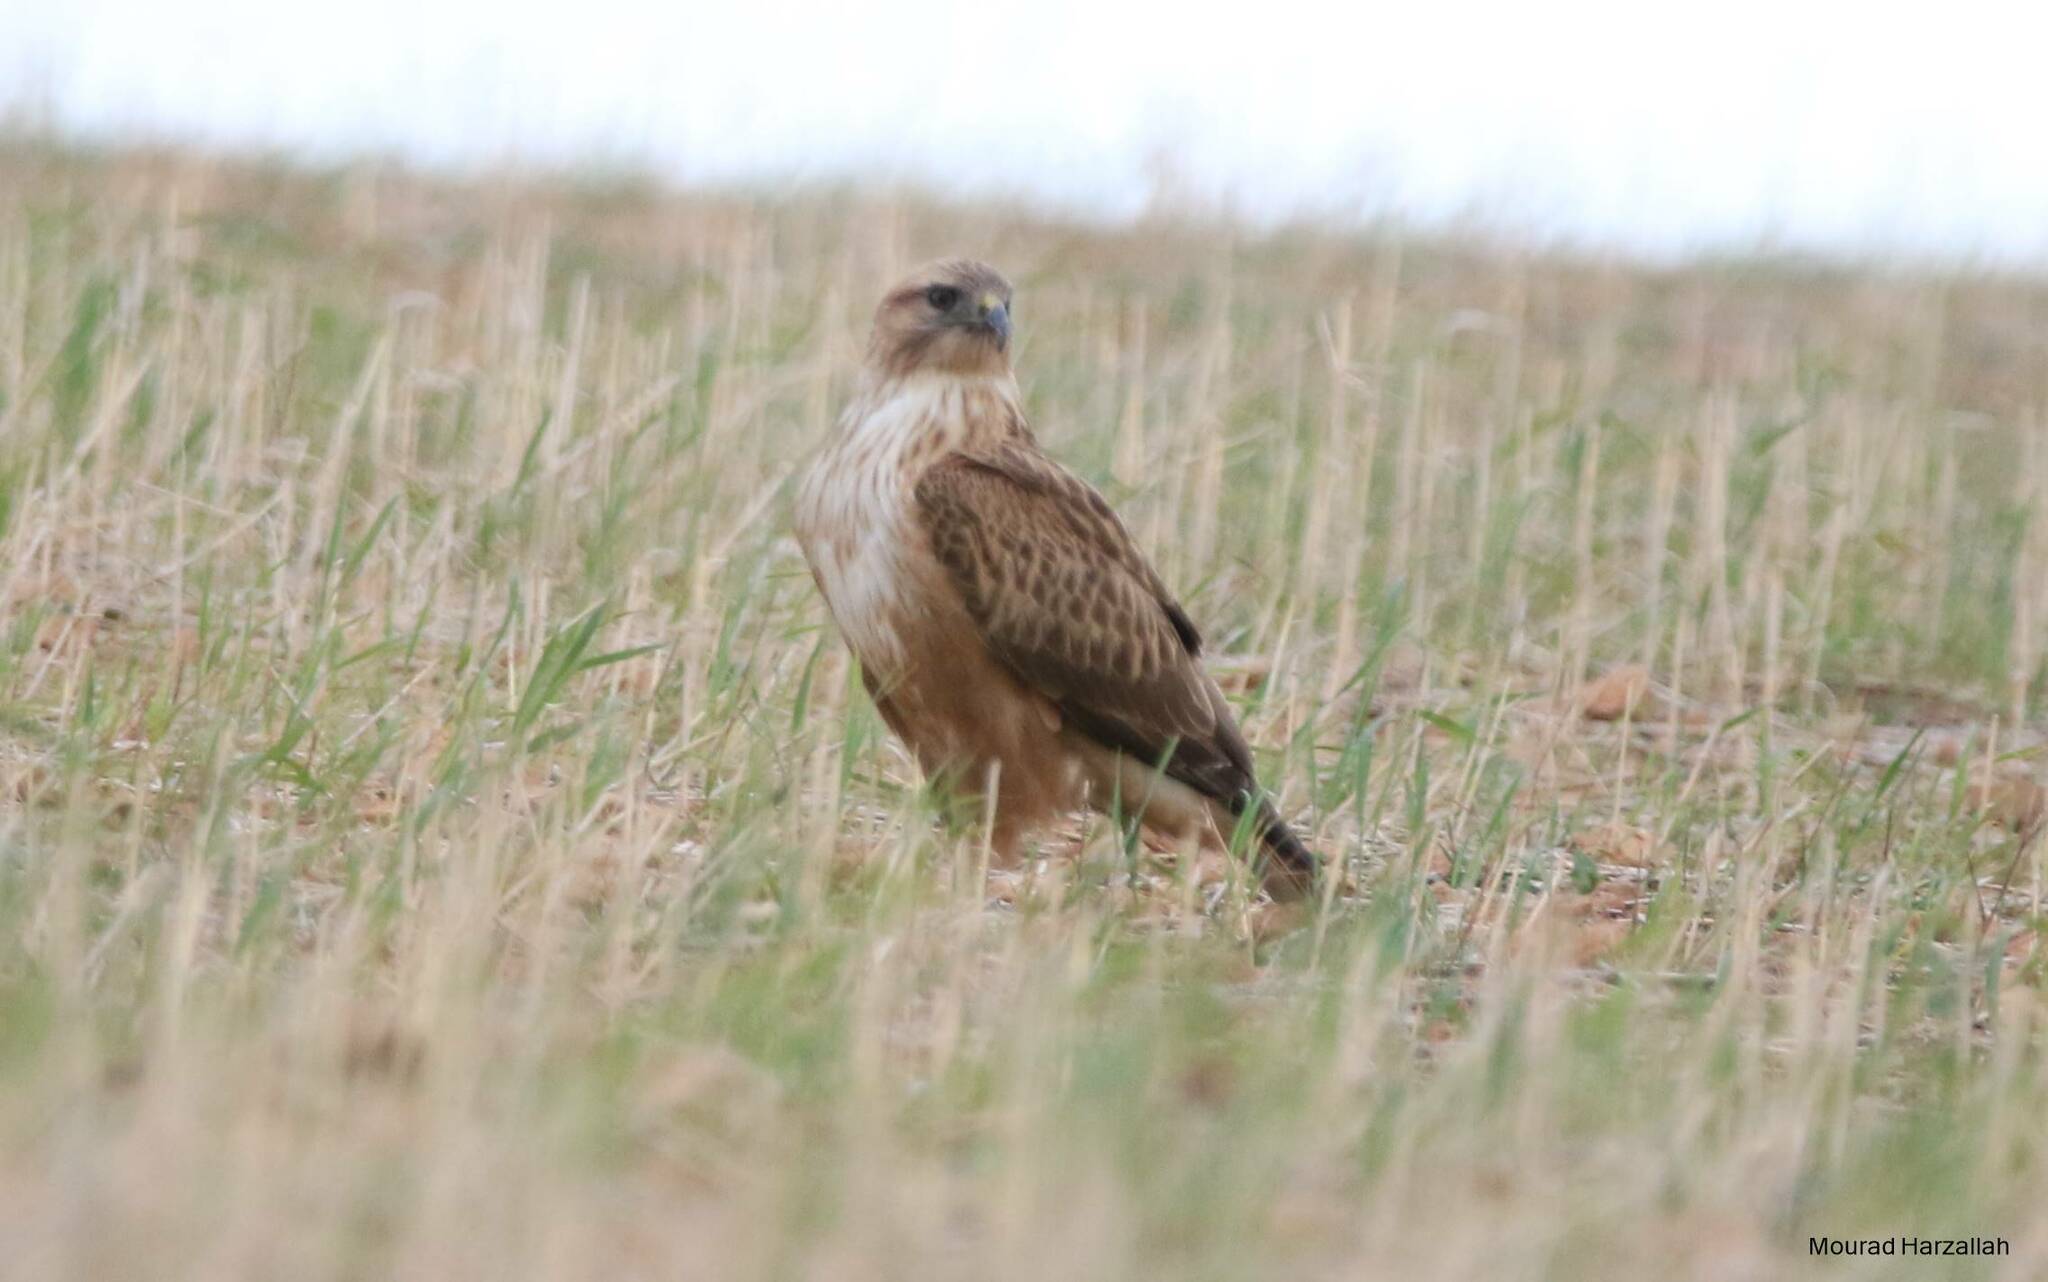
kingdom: Animalia
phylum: Chordata
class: Aves
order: Accipitriformes
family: Accipitridae
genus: Buteo
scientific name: Buteo rufinus
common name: Long-legged buzzard
